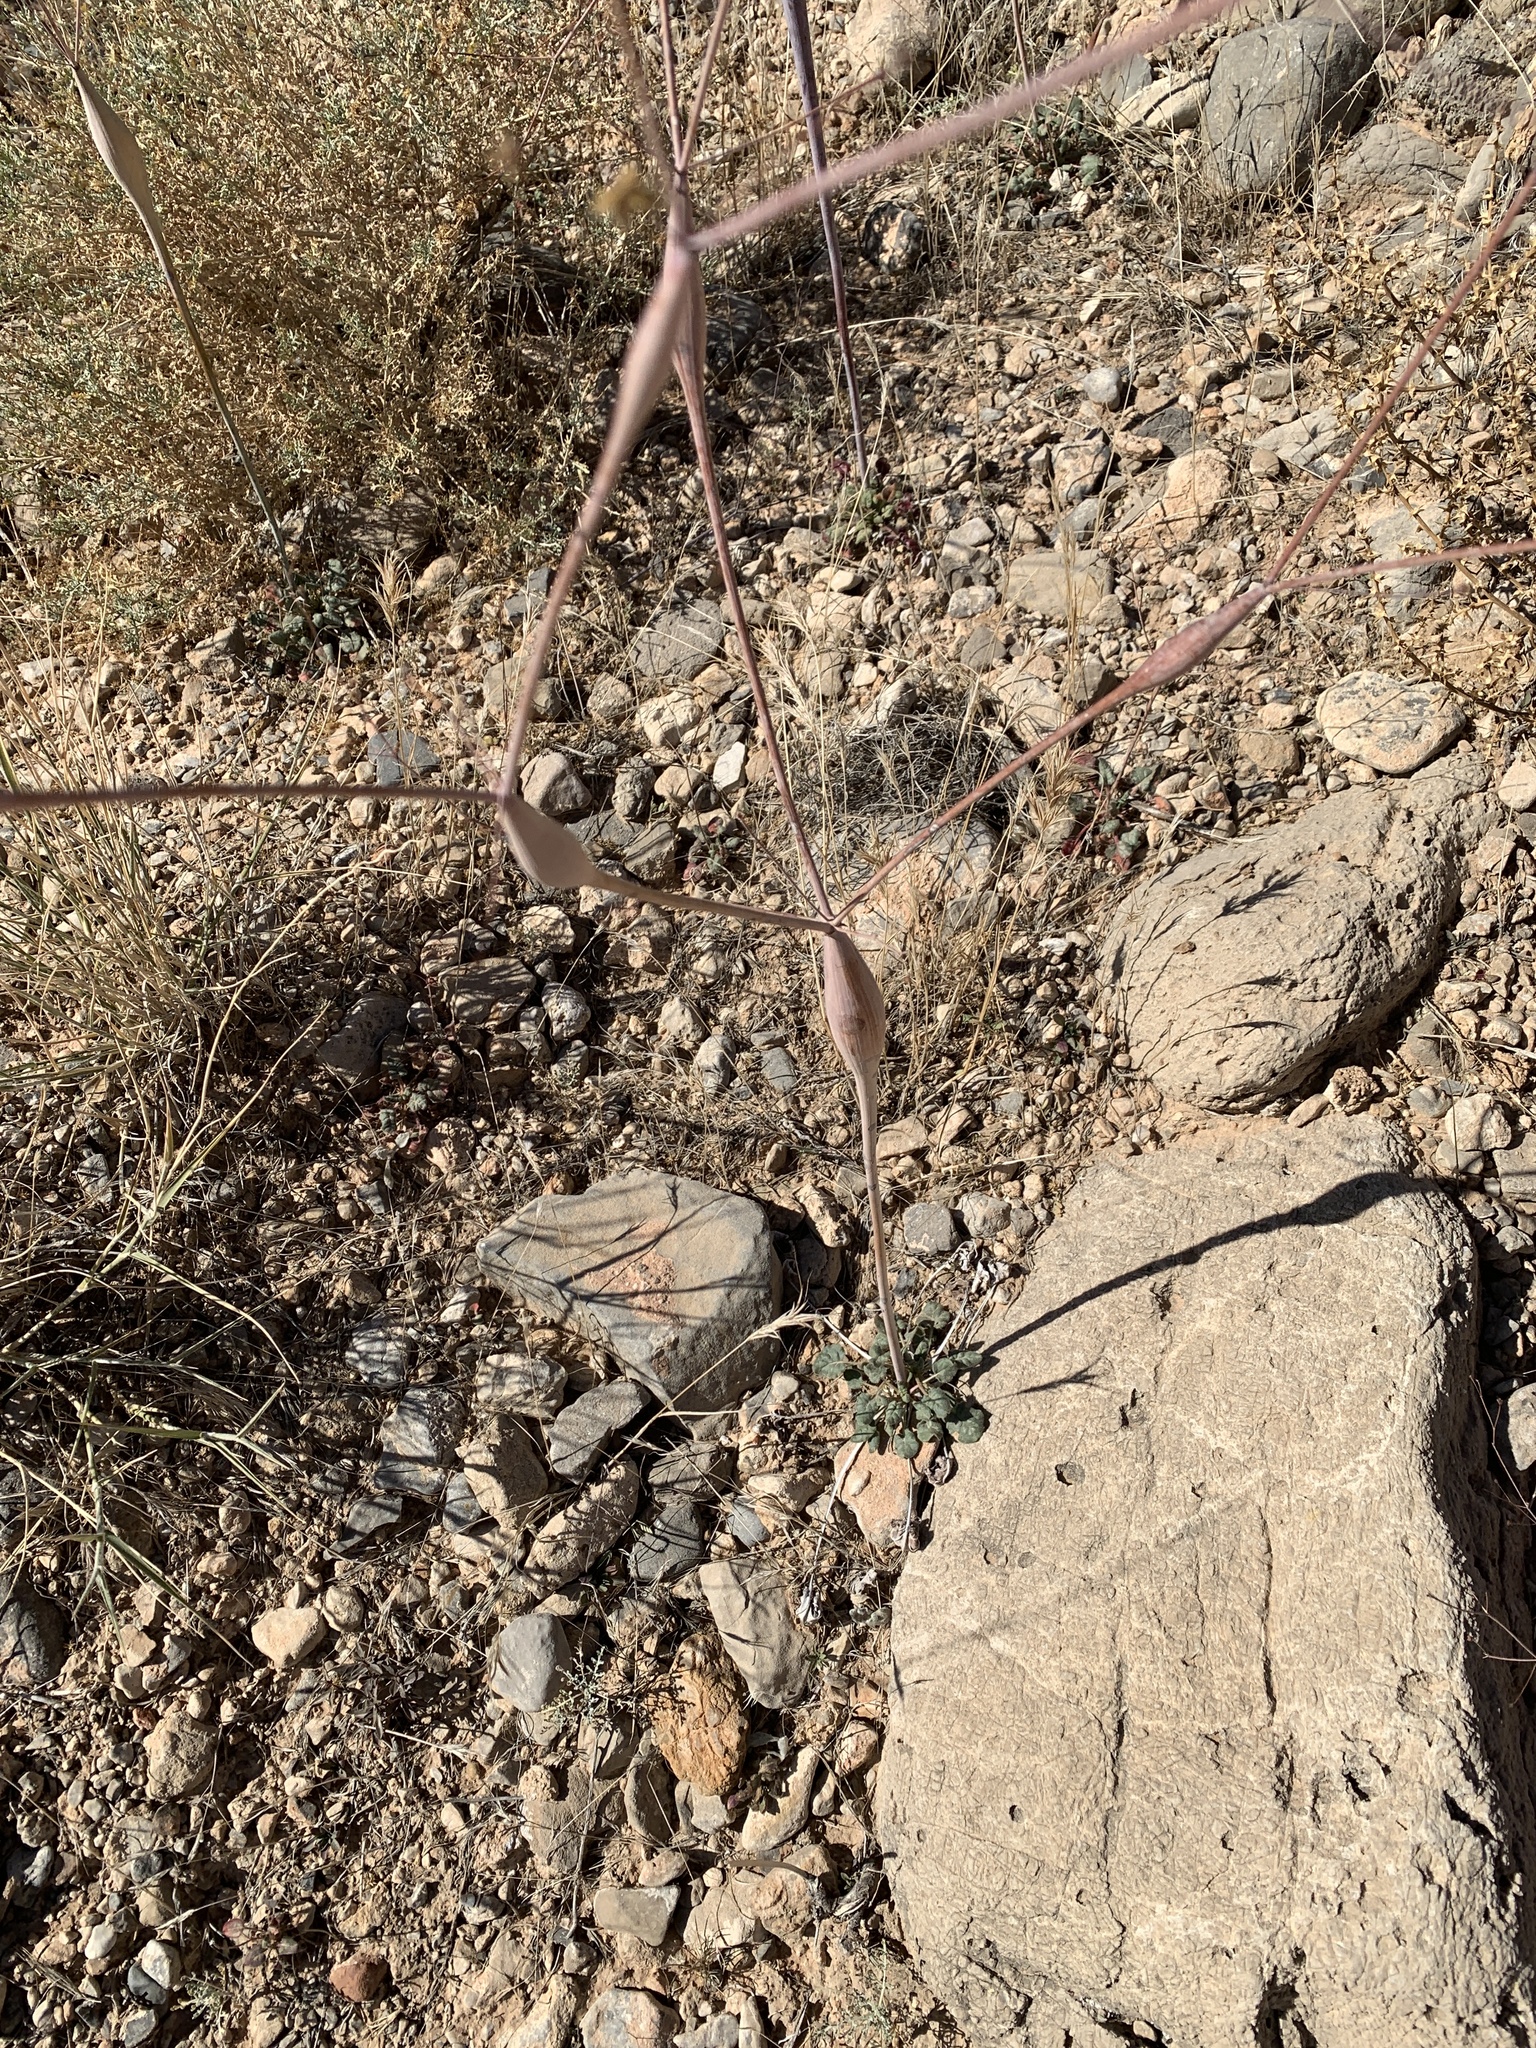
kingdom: Plantae
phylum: Tracheophyta
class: Magnoliopsida
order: Caryophyllales
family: Polygonaceae
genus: Eriogonum
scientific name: Eriogonum inflatum
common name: Desert trumpet
